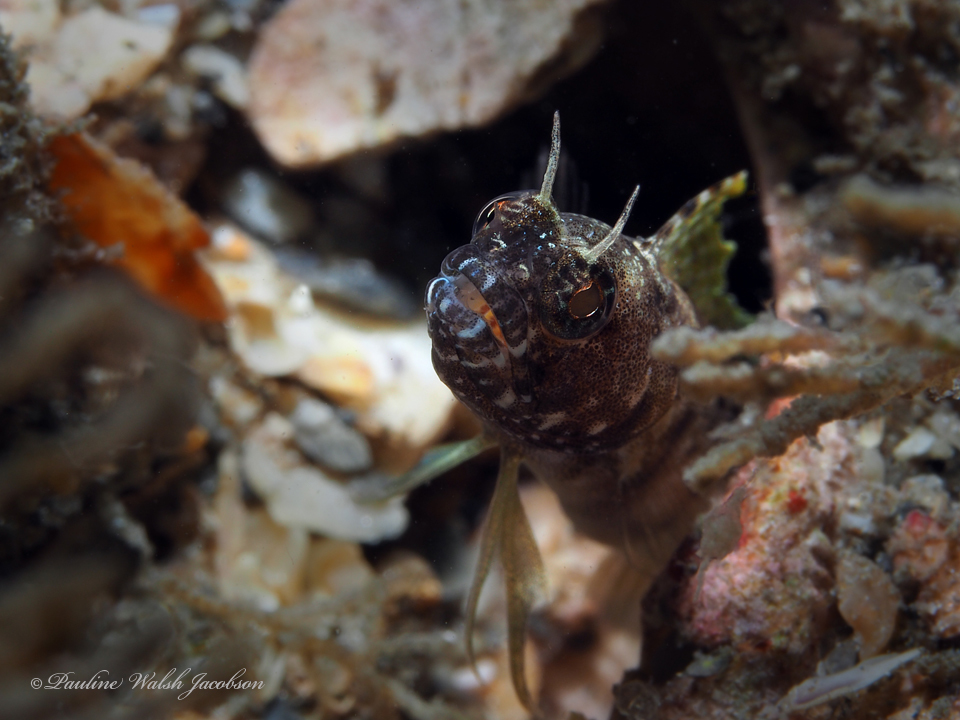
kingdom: Animalia
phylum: Chordata
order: Perciformes
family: Chaenopsidae
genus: Emblemaria
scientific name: Emblemaria pandionis
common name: Sailfin blenny
